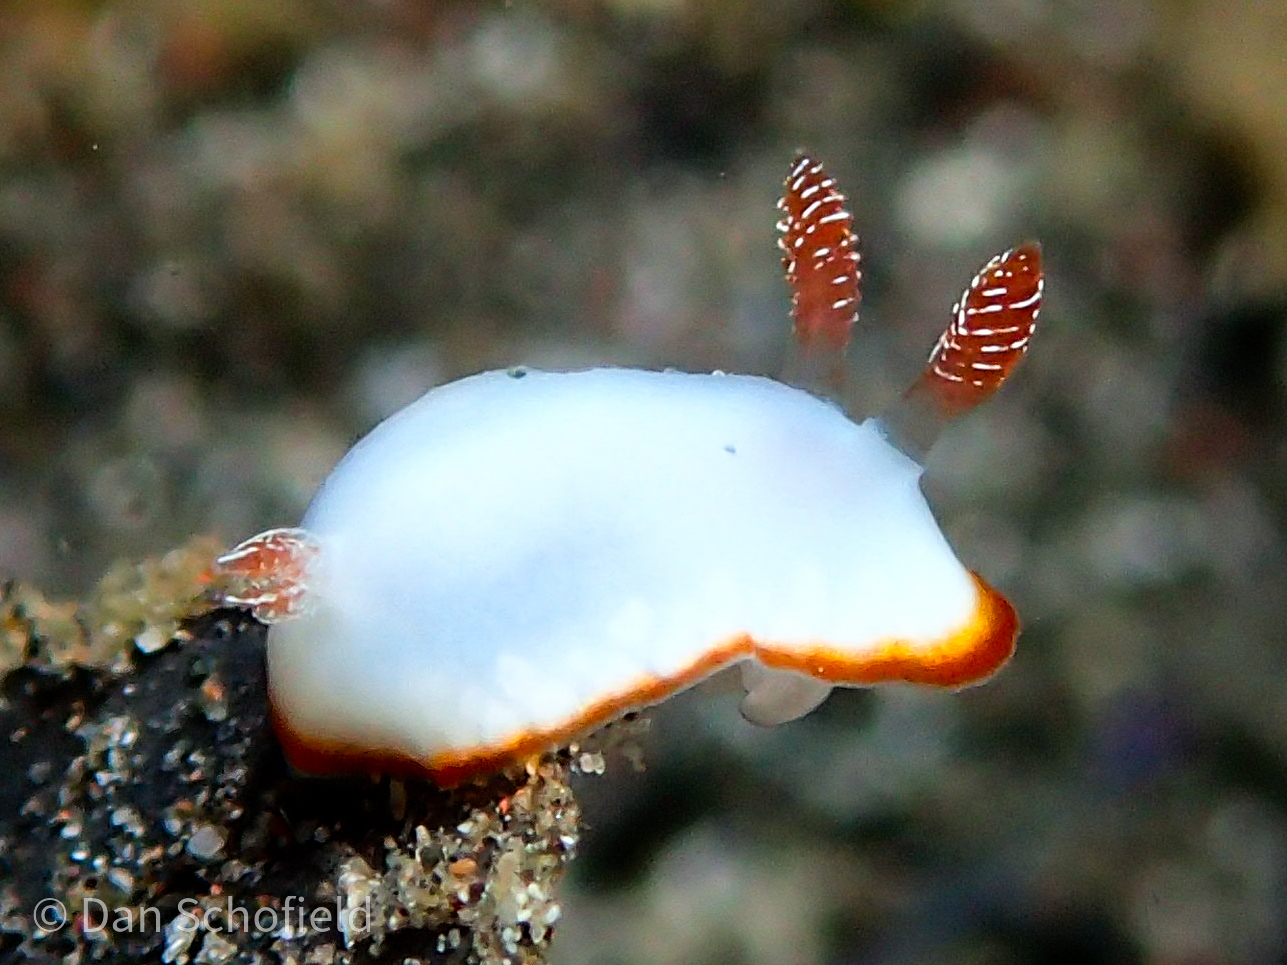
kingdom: Animalia
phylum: Mollusca
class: Gastropoda
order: Nudibranchia
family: Chromodorididae
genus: Goniobranchus
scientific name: Goniobranchus verrieri
